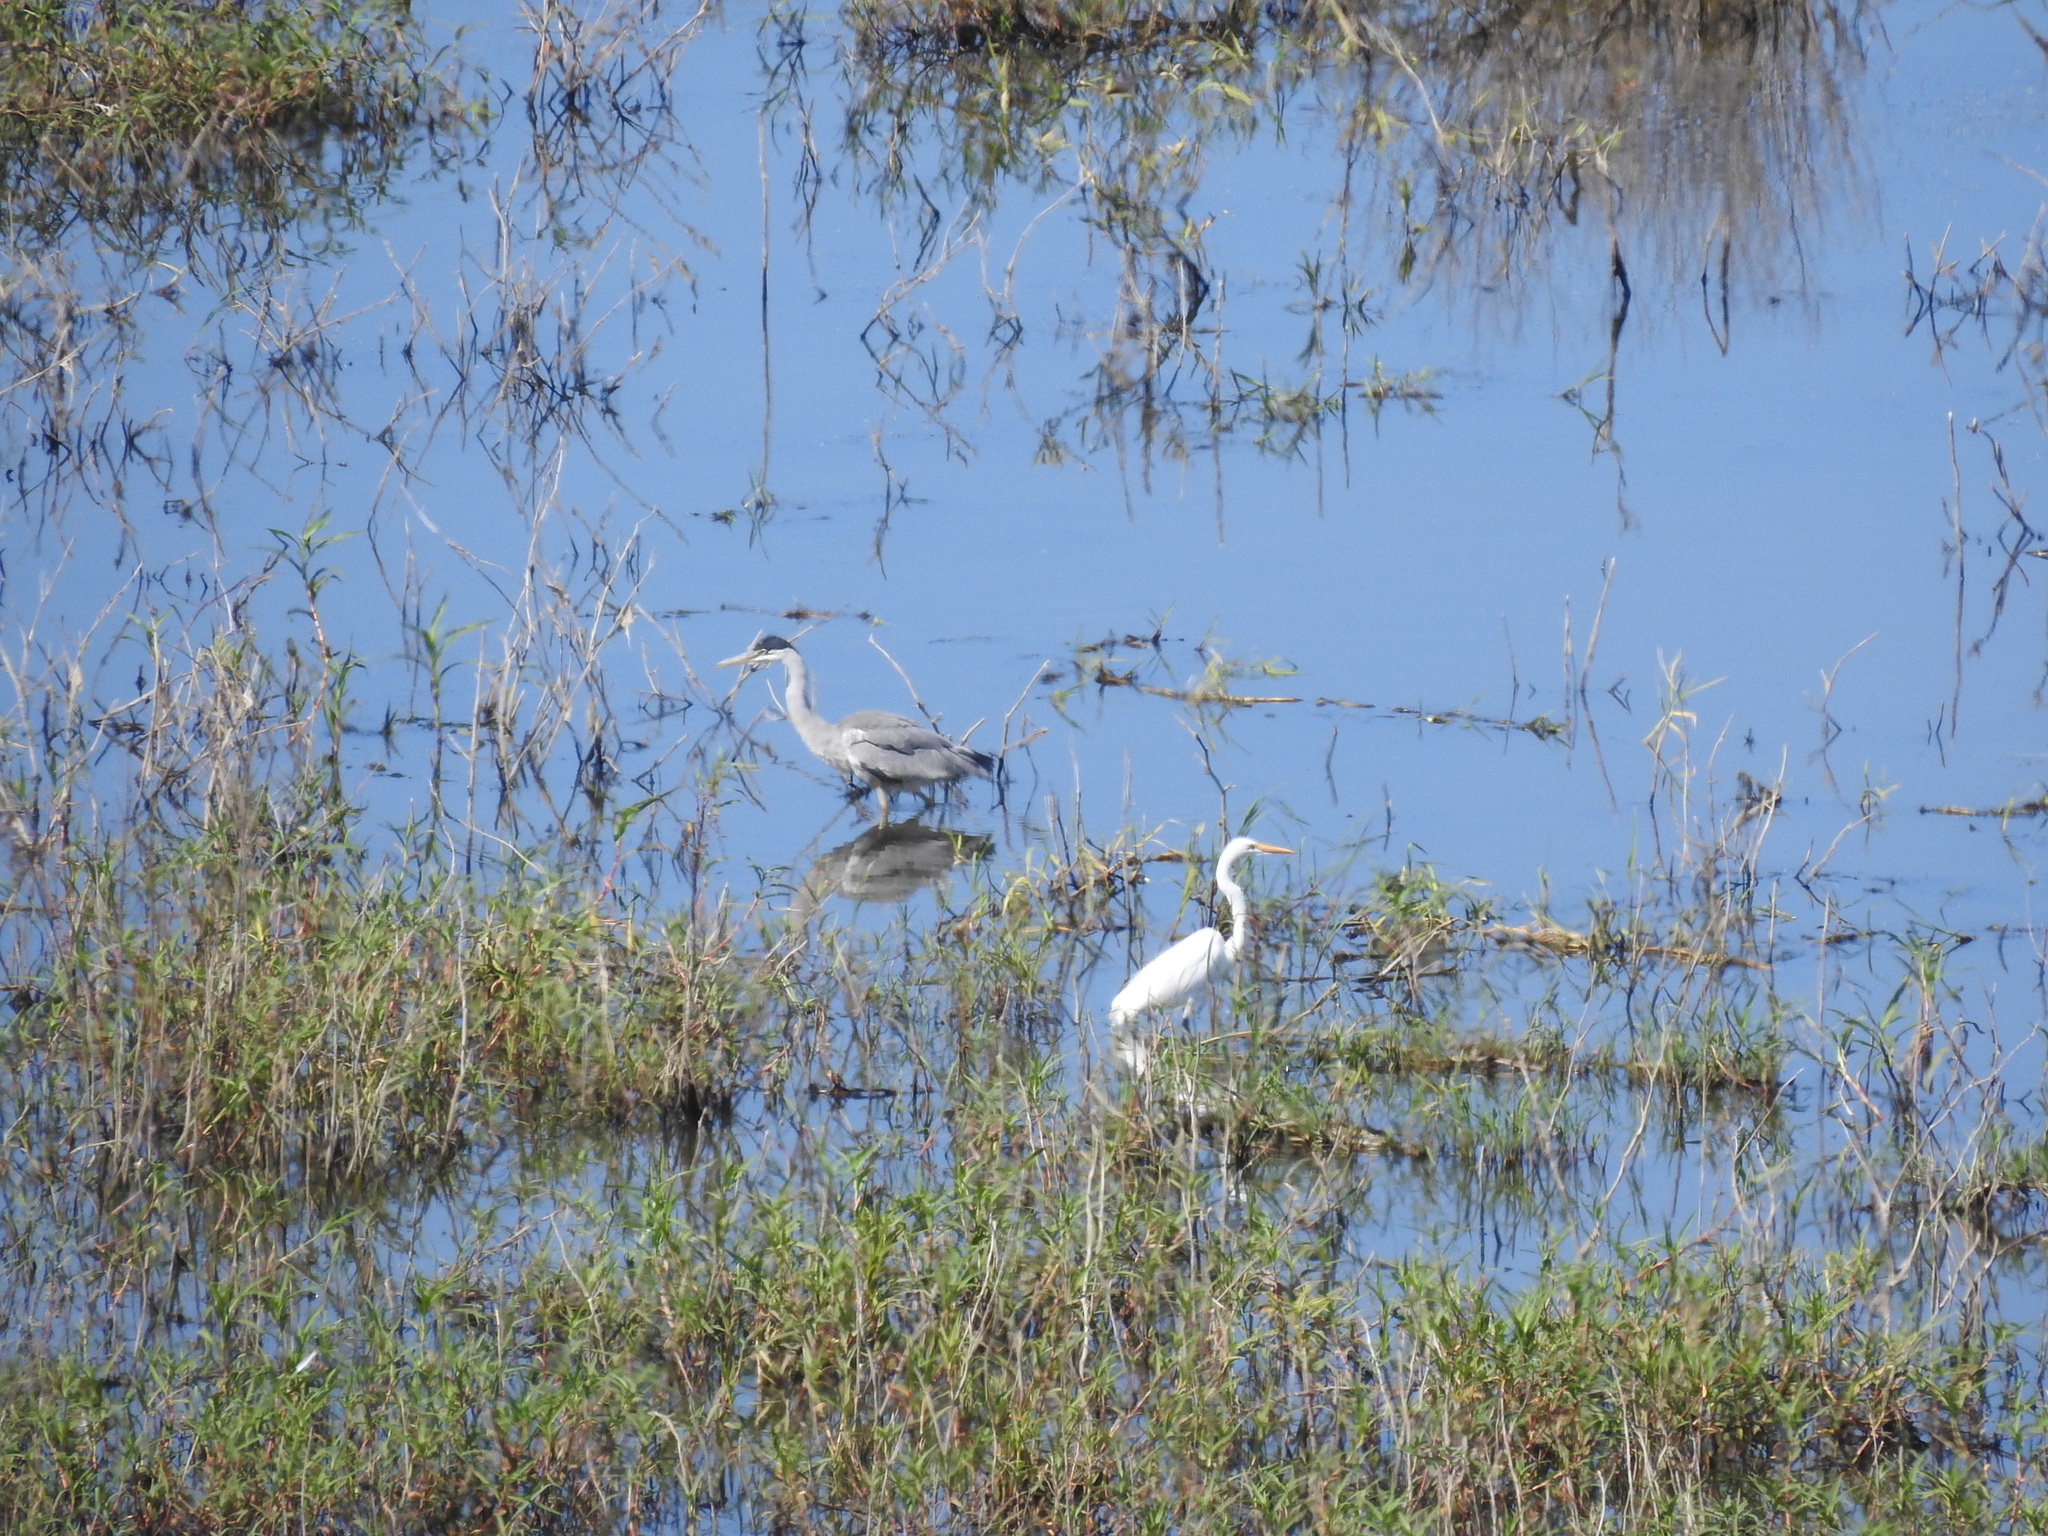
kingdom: Animalia
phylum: Chordata
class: Aves
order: Pelecaniformes
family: Ardeidae
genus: Ardea
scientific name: Ardea cocoi
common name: Cocoi heron
